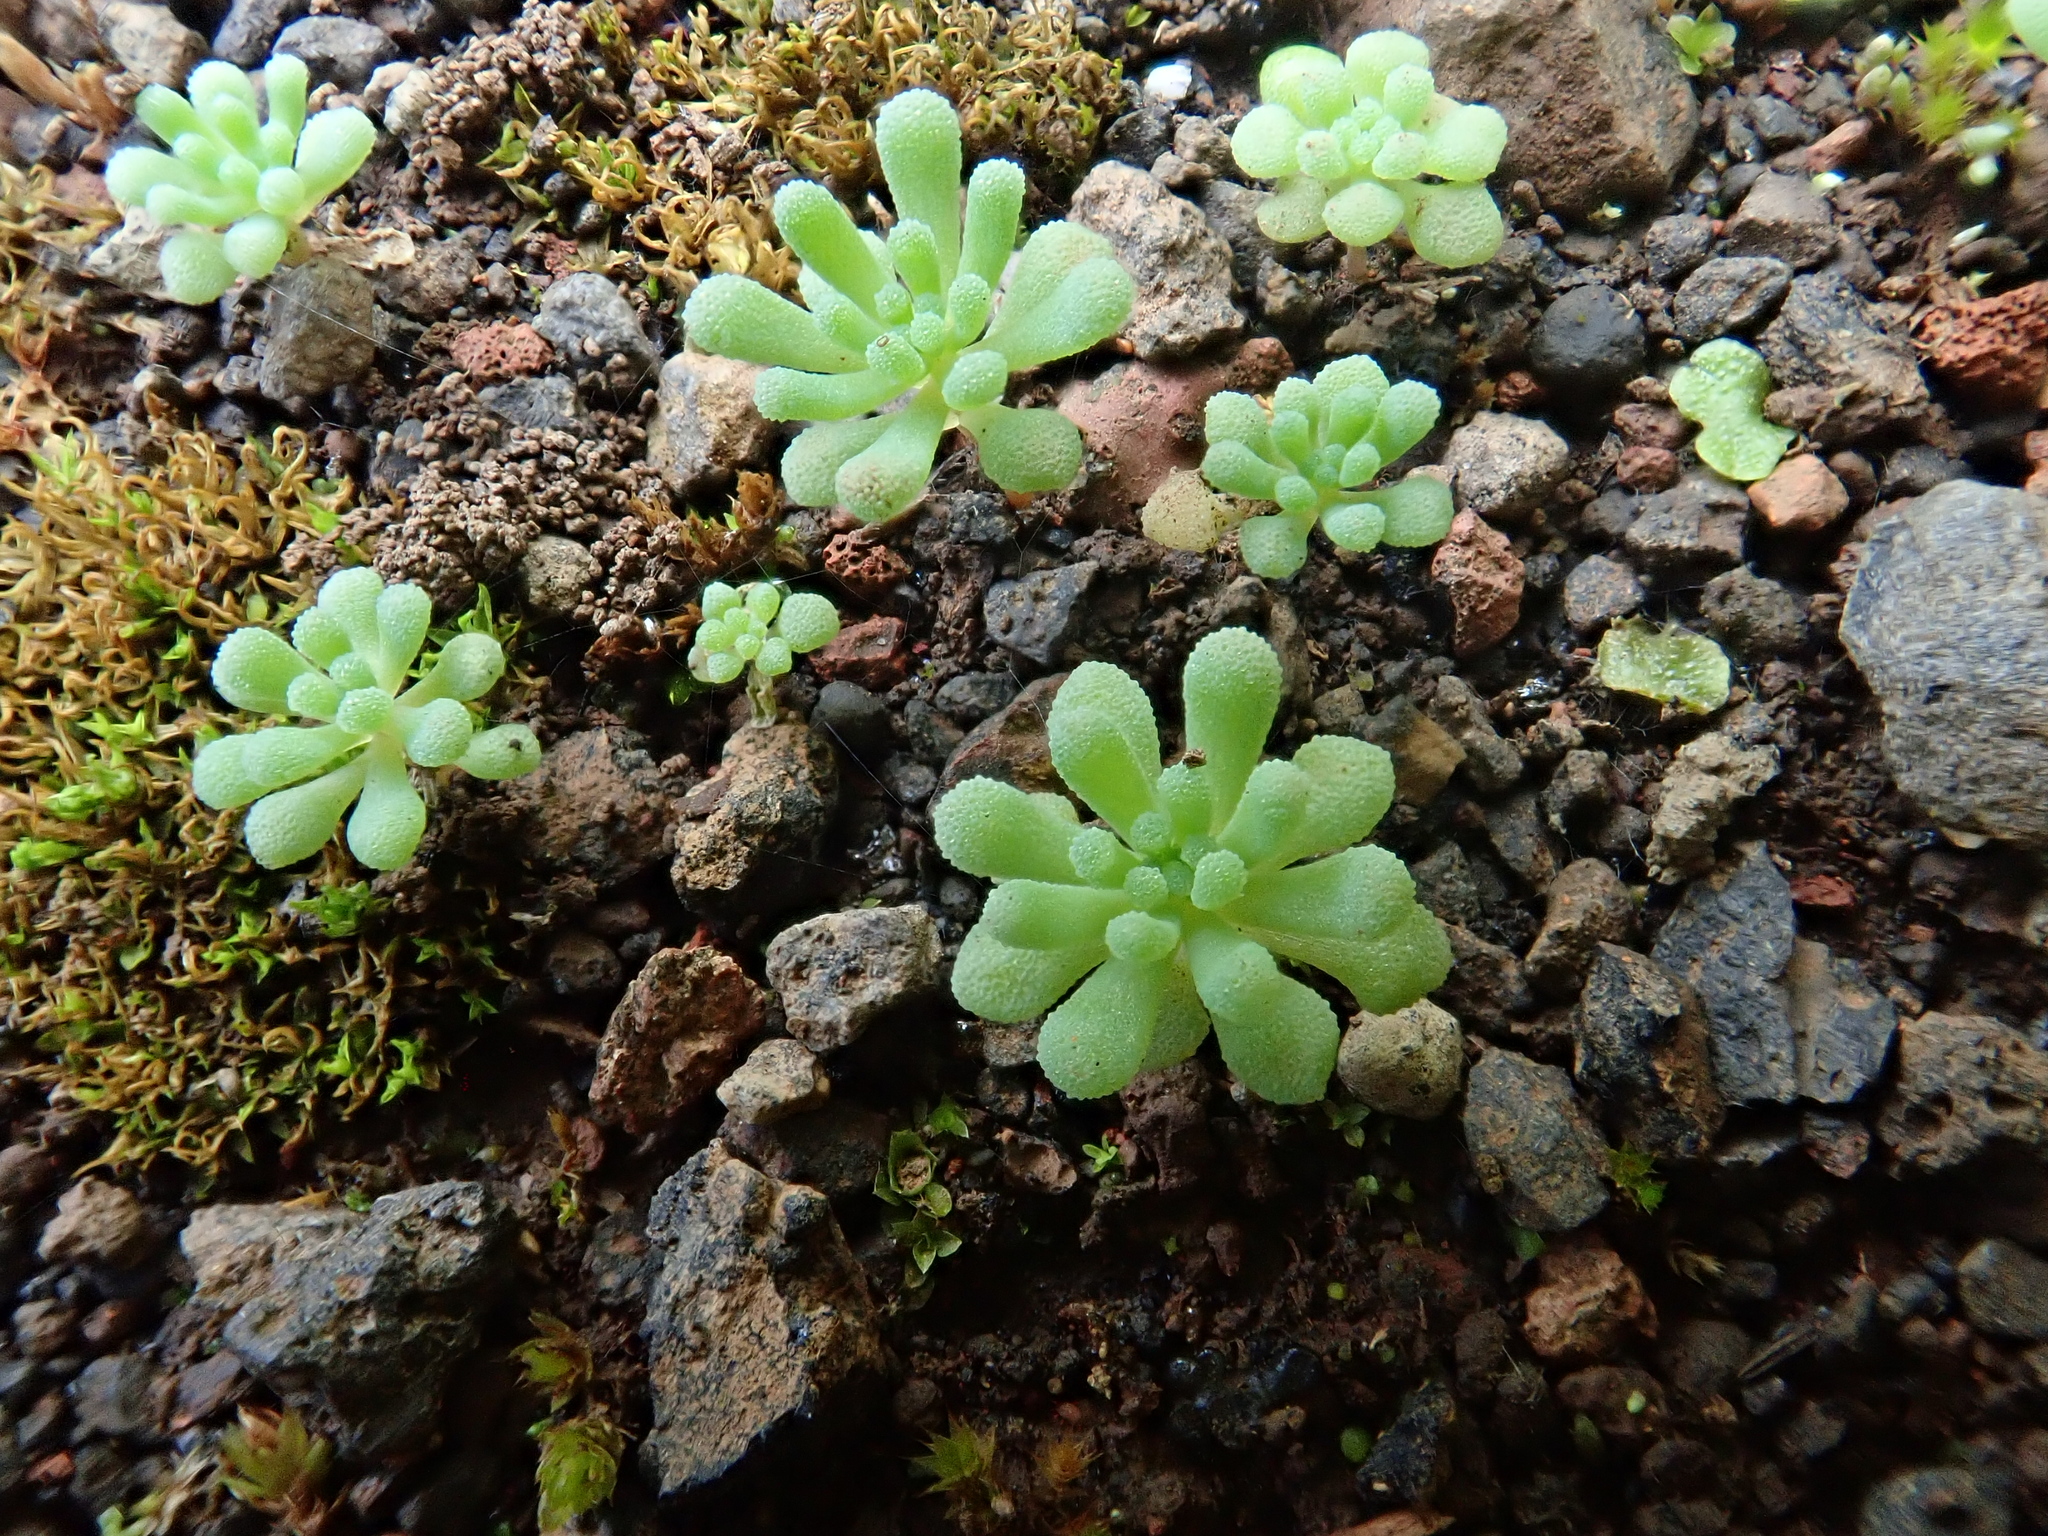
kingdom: Plantae
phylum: Tracheophyta
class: Magnoliopsida
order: Saxifragales
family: Crassulaceae
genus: Sedum
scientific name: Sedum rubens
